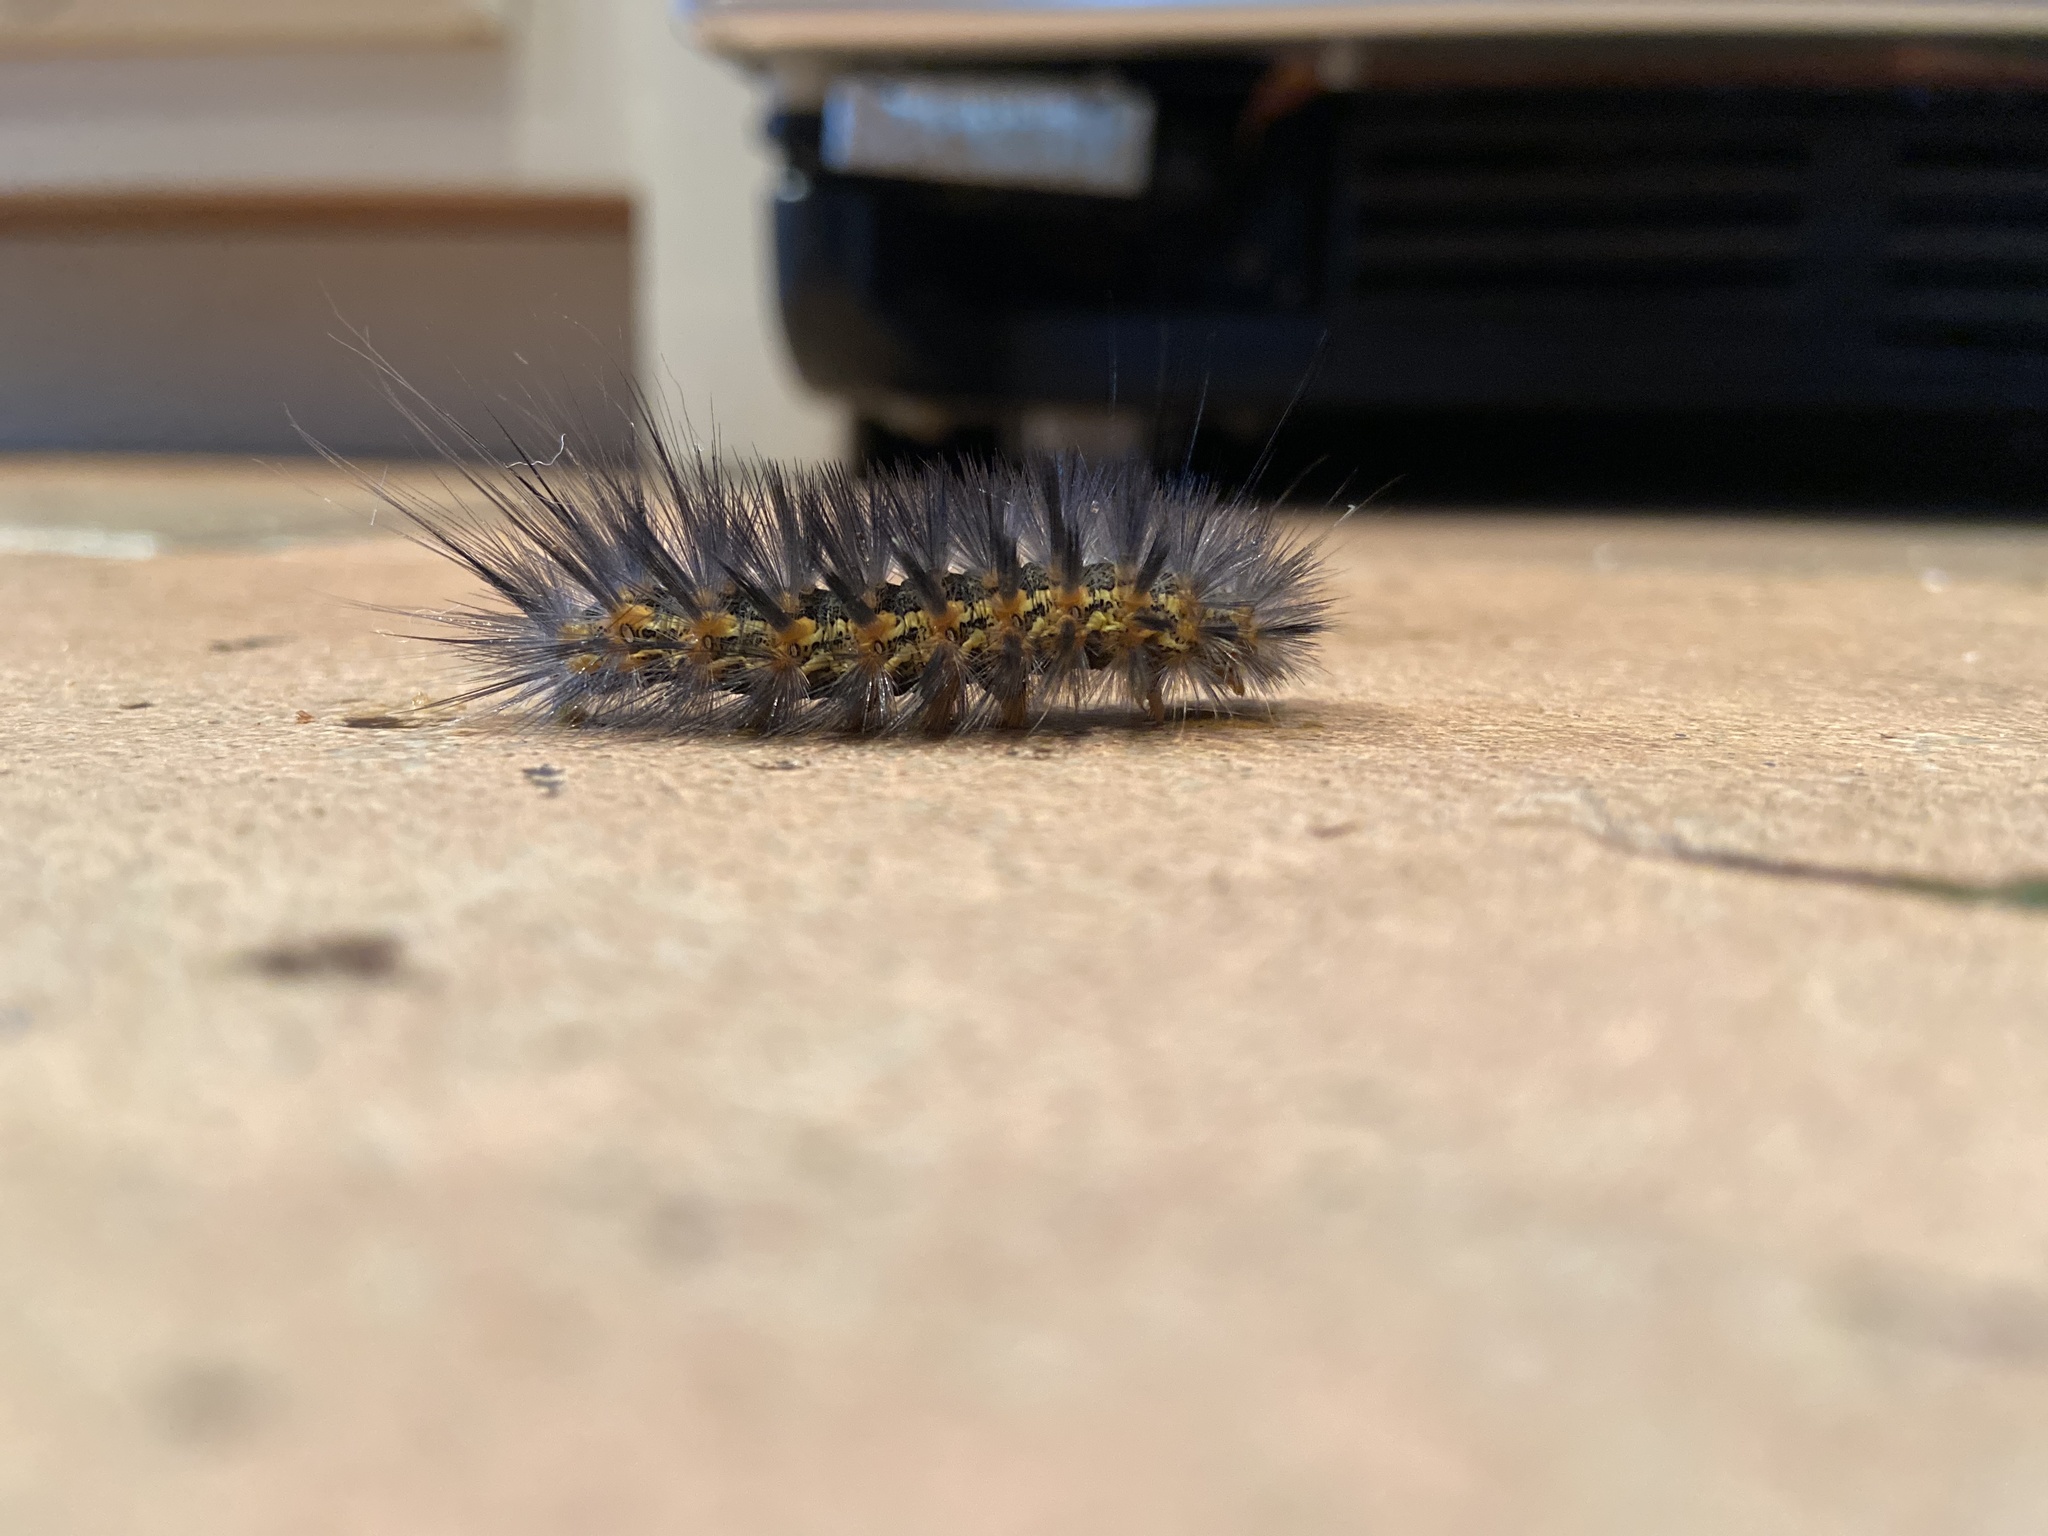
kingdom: Animalia
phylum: Arthropoda
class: Insecta
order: Lepidoptera
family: Erebidae
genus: Estigmene
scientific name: Estigmene acrea
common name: Salt marsh moth
